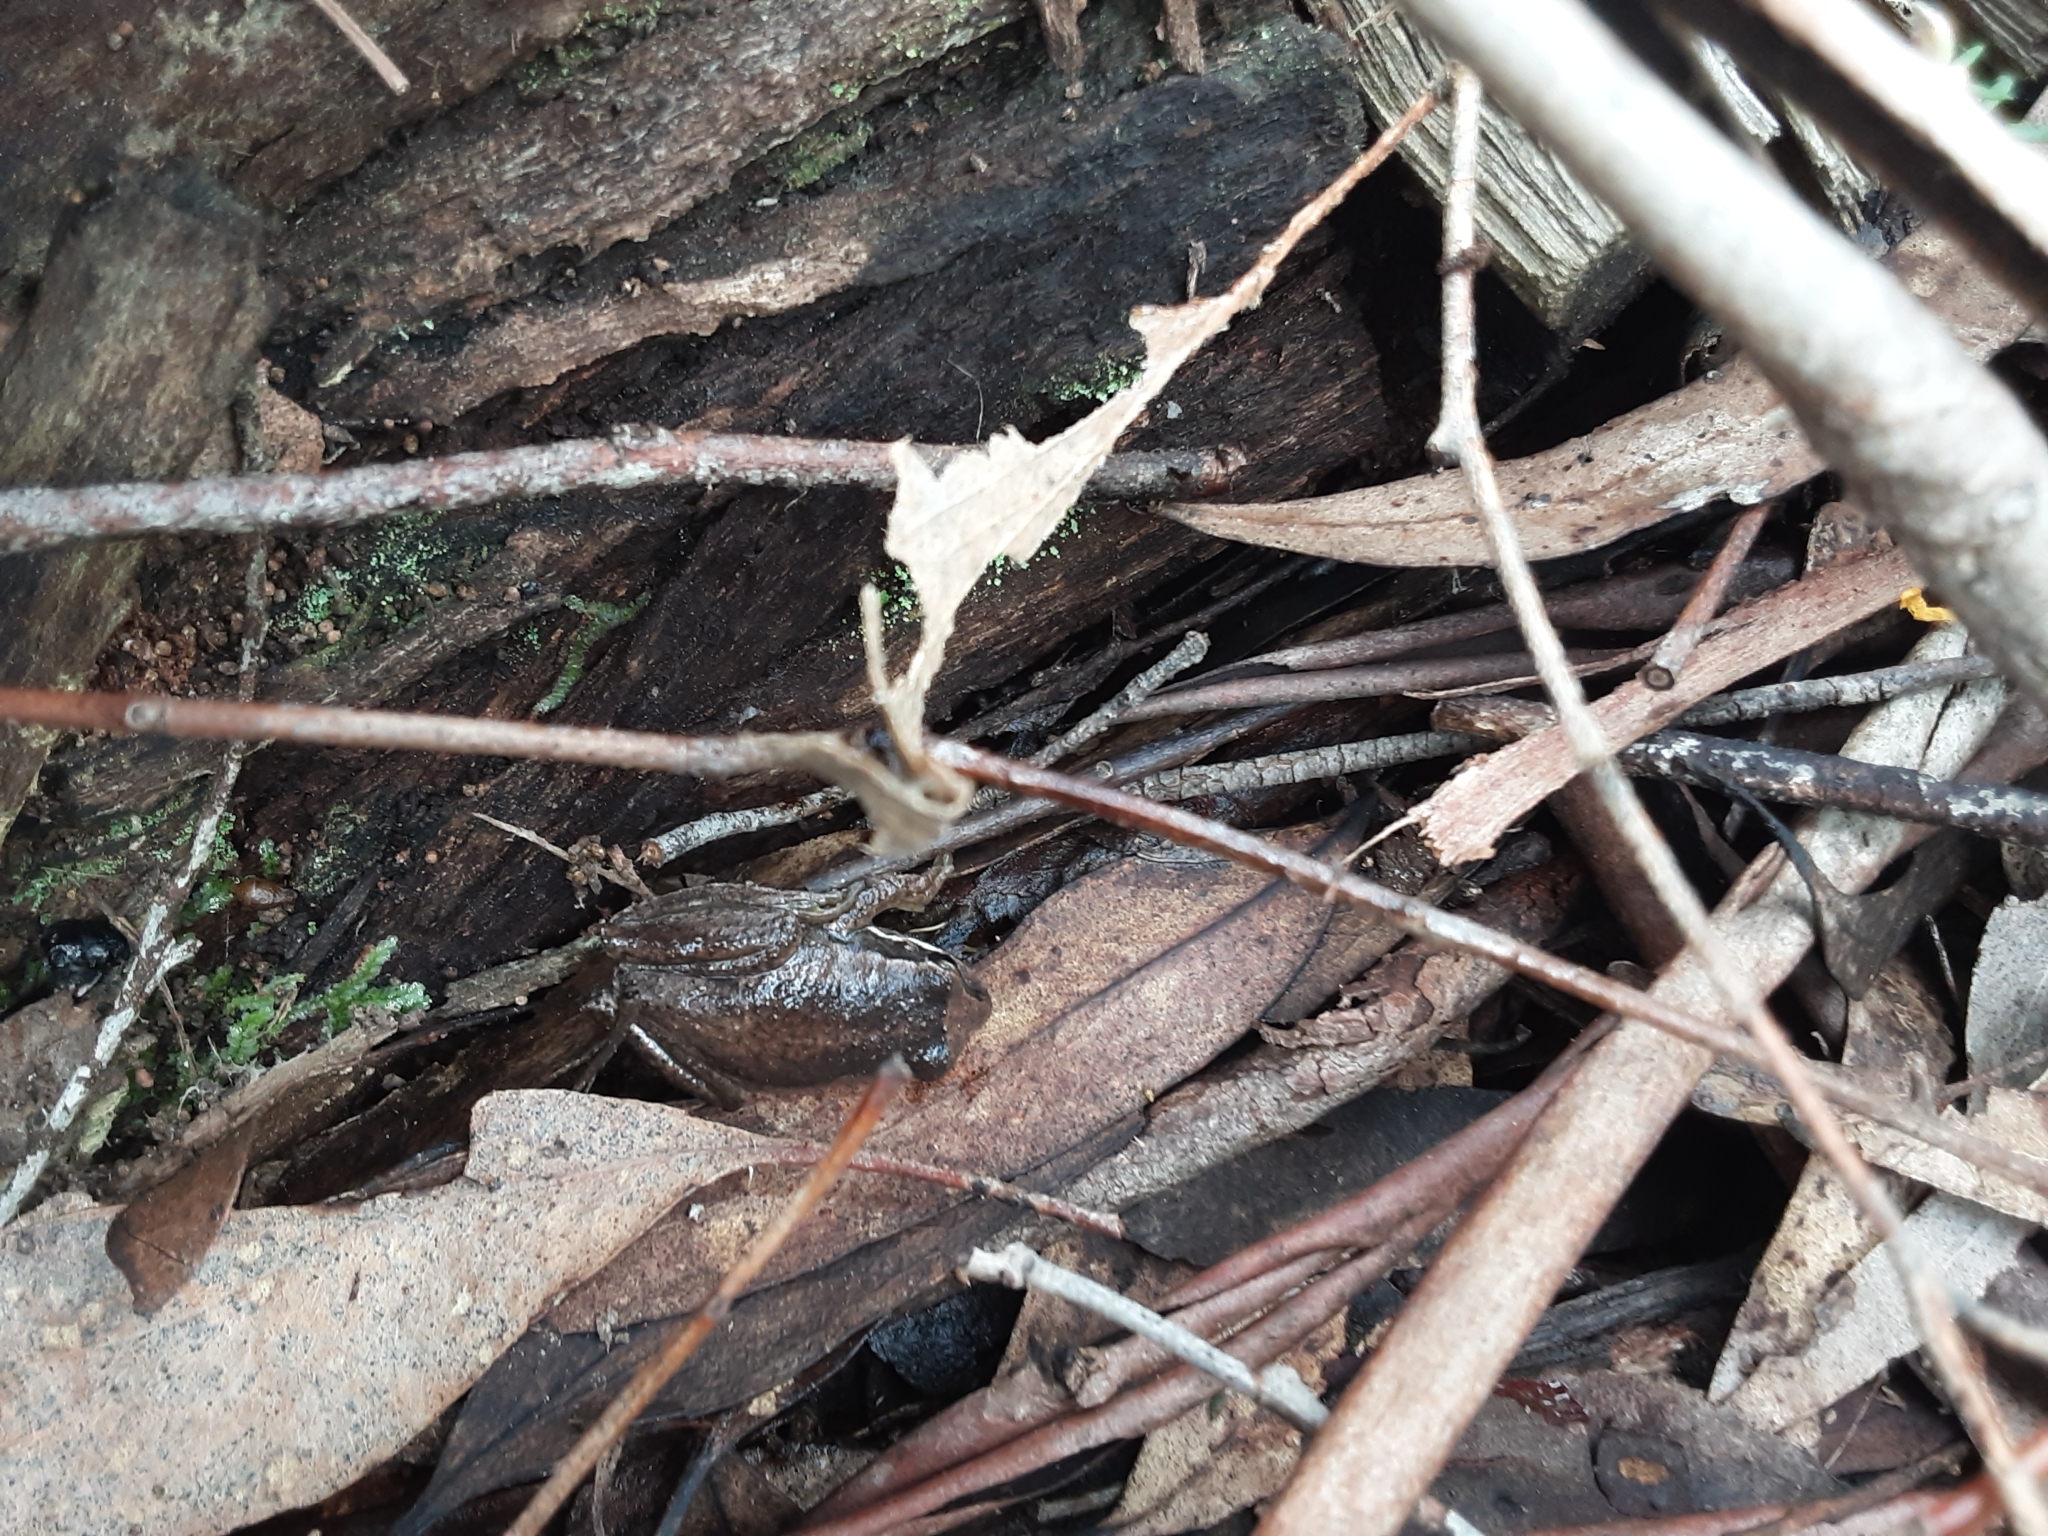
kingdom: Animalia
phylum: Chordata
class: Amphibia
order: Anura
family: Pelodryadidae
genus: Litoria
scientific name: Litoria ewingii
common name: Southern brown tree frog
